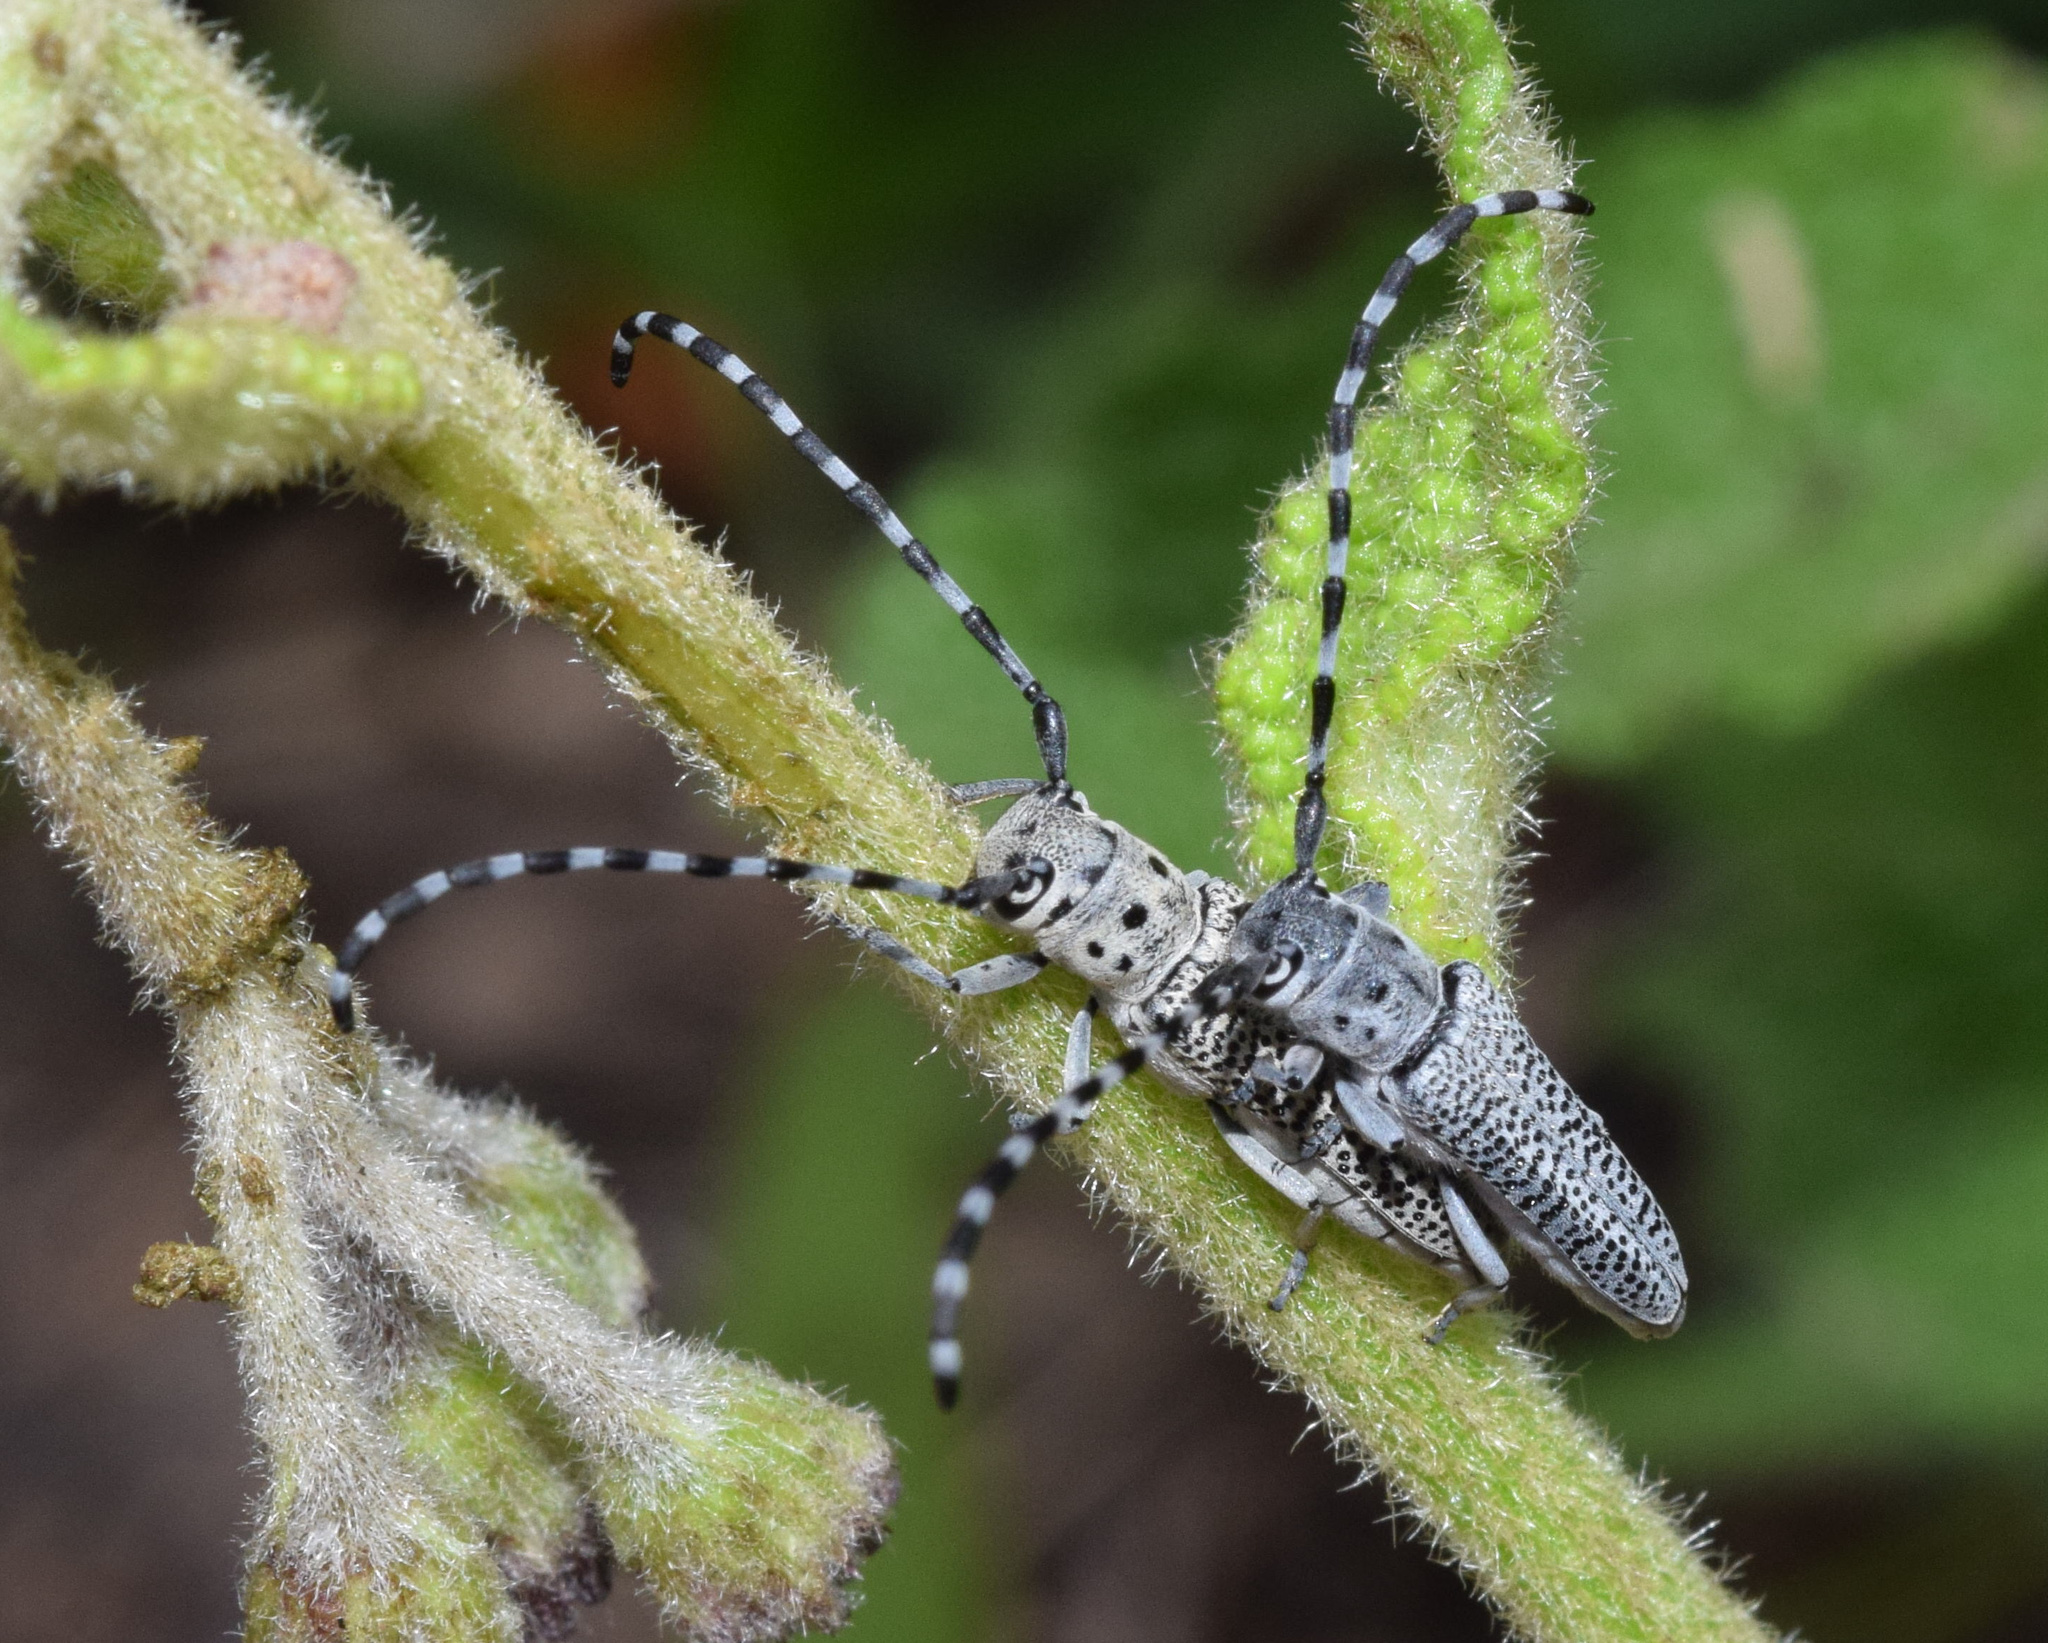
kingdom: Animalia
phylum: Arthropoda
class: Insecta
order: Coleoptera
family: Cerambycidae
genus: Phytoecia
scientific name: Phytoecia bohemani
